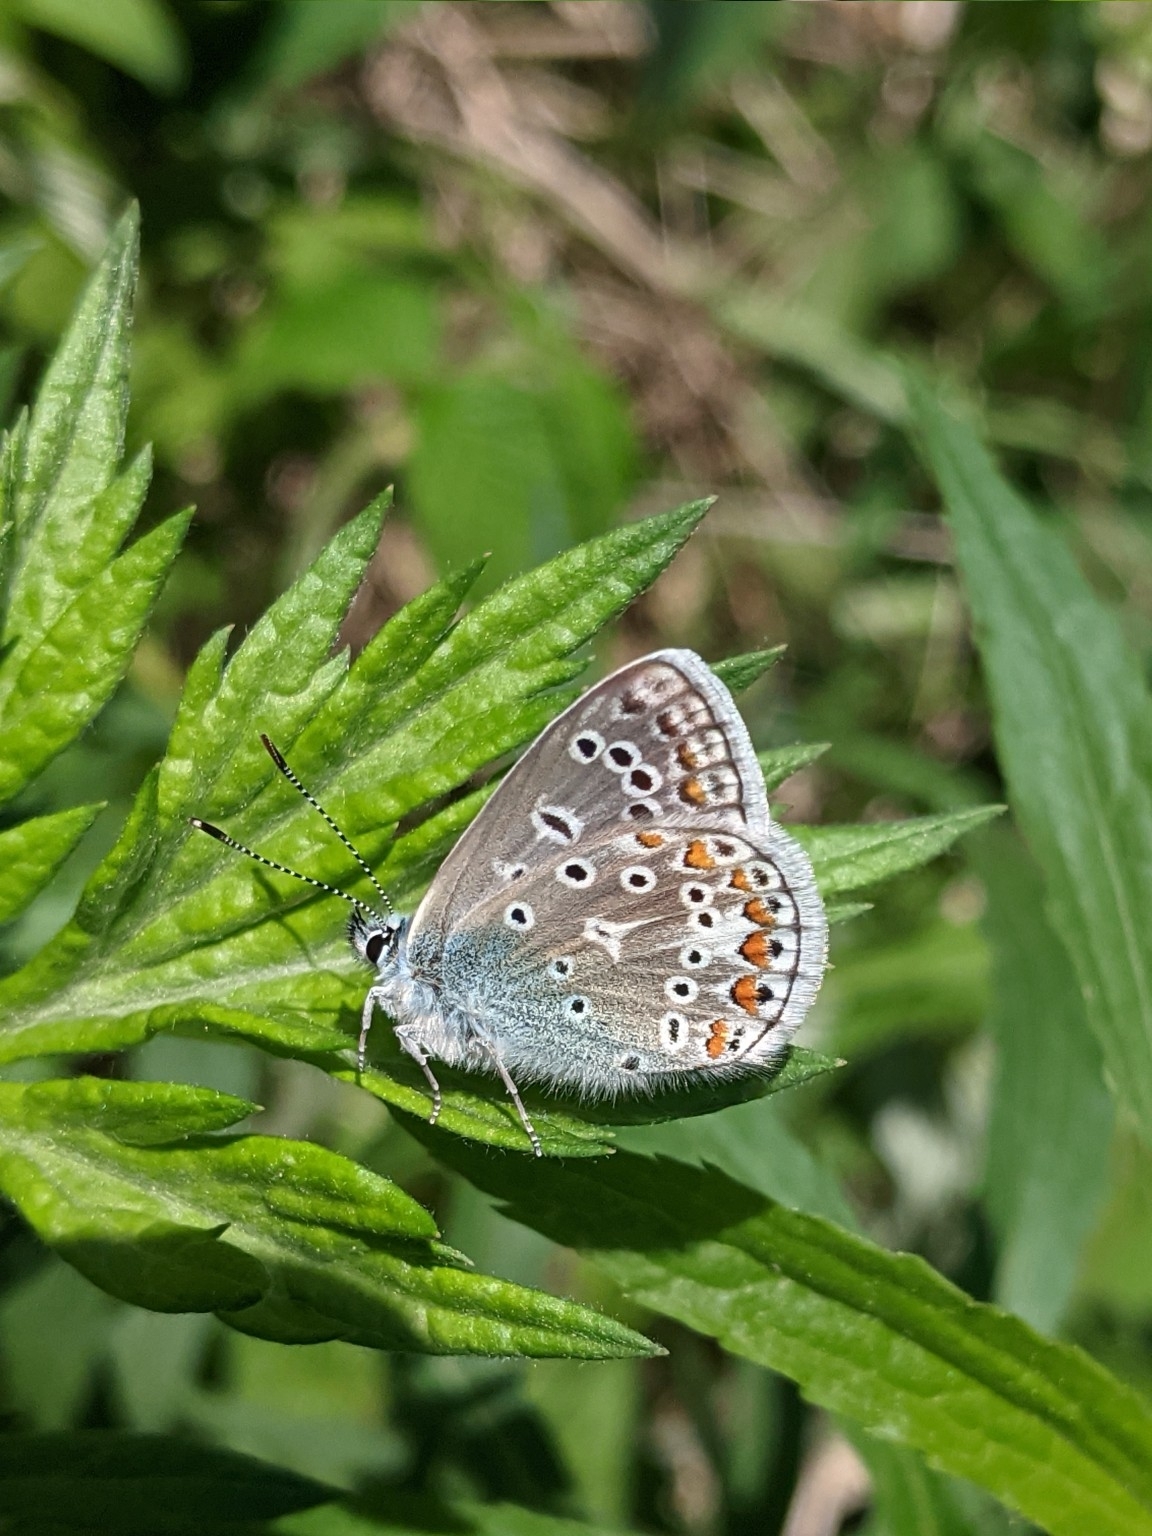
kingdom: Animalia
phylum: Arthropoda
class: Insecta
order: Lepidoptera
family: Lycaenidae
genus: Polyommatus
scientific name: Polyommatus icarus
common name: Common blue
